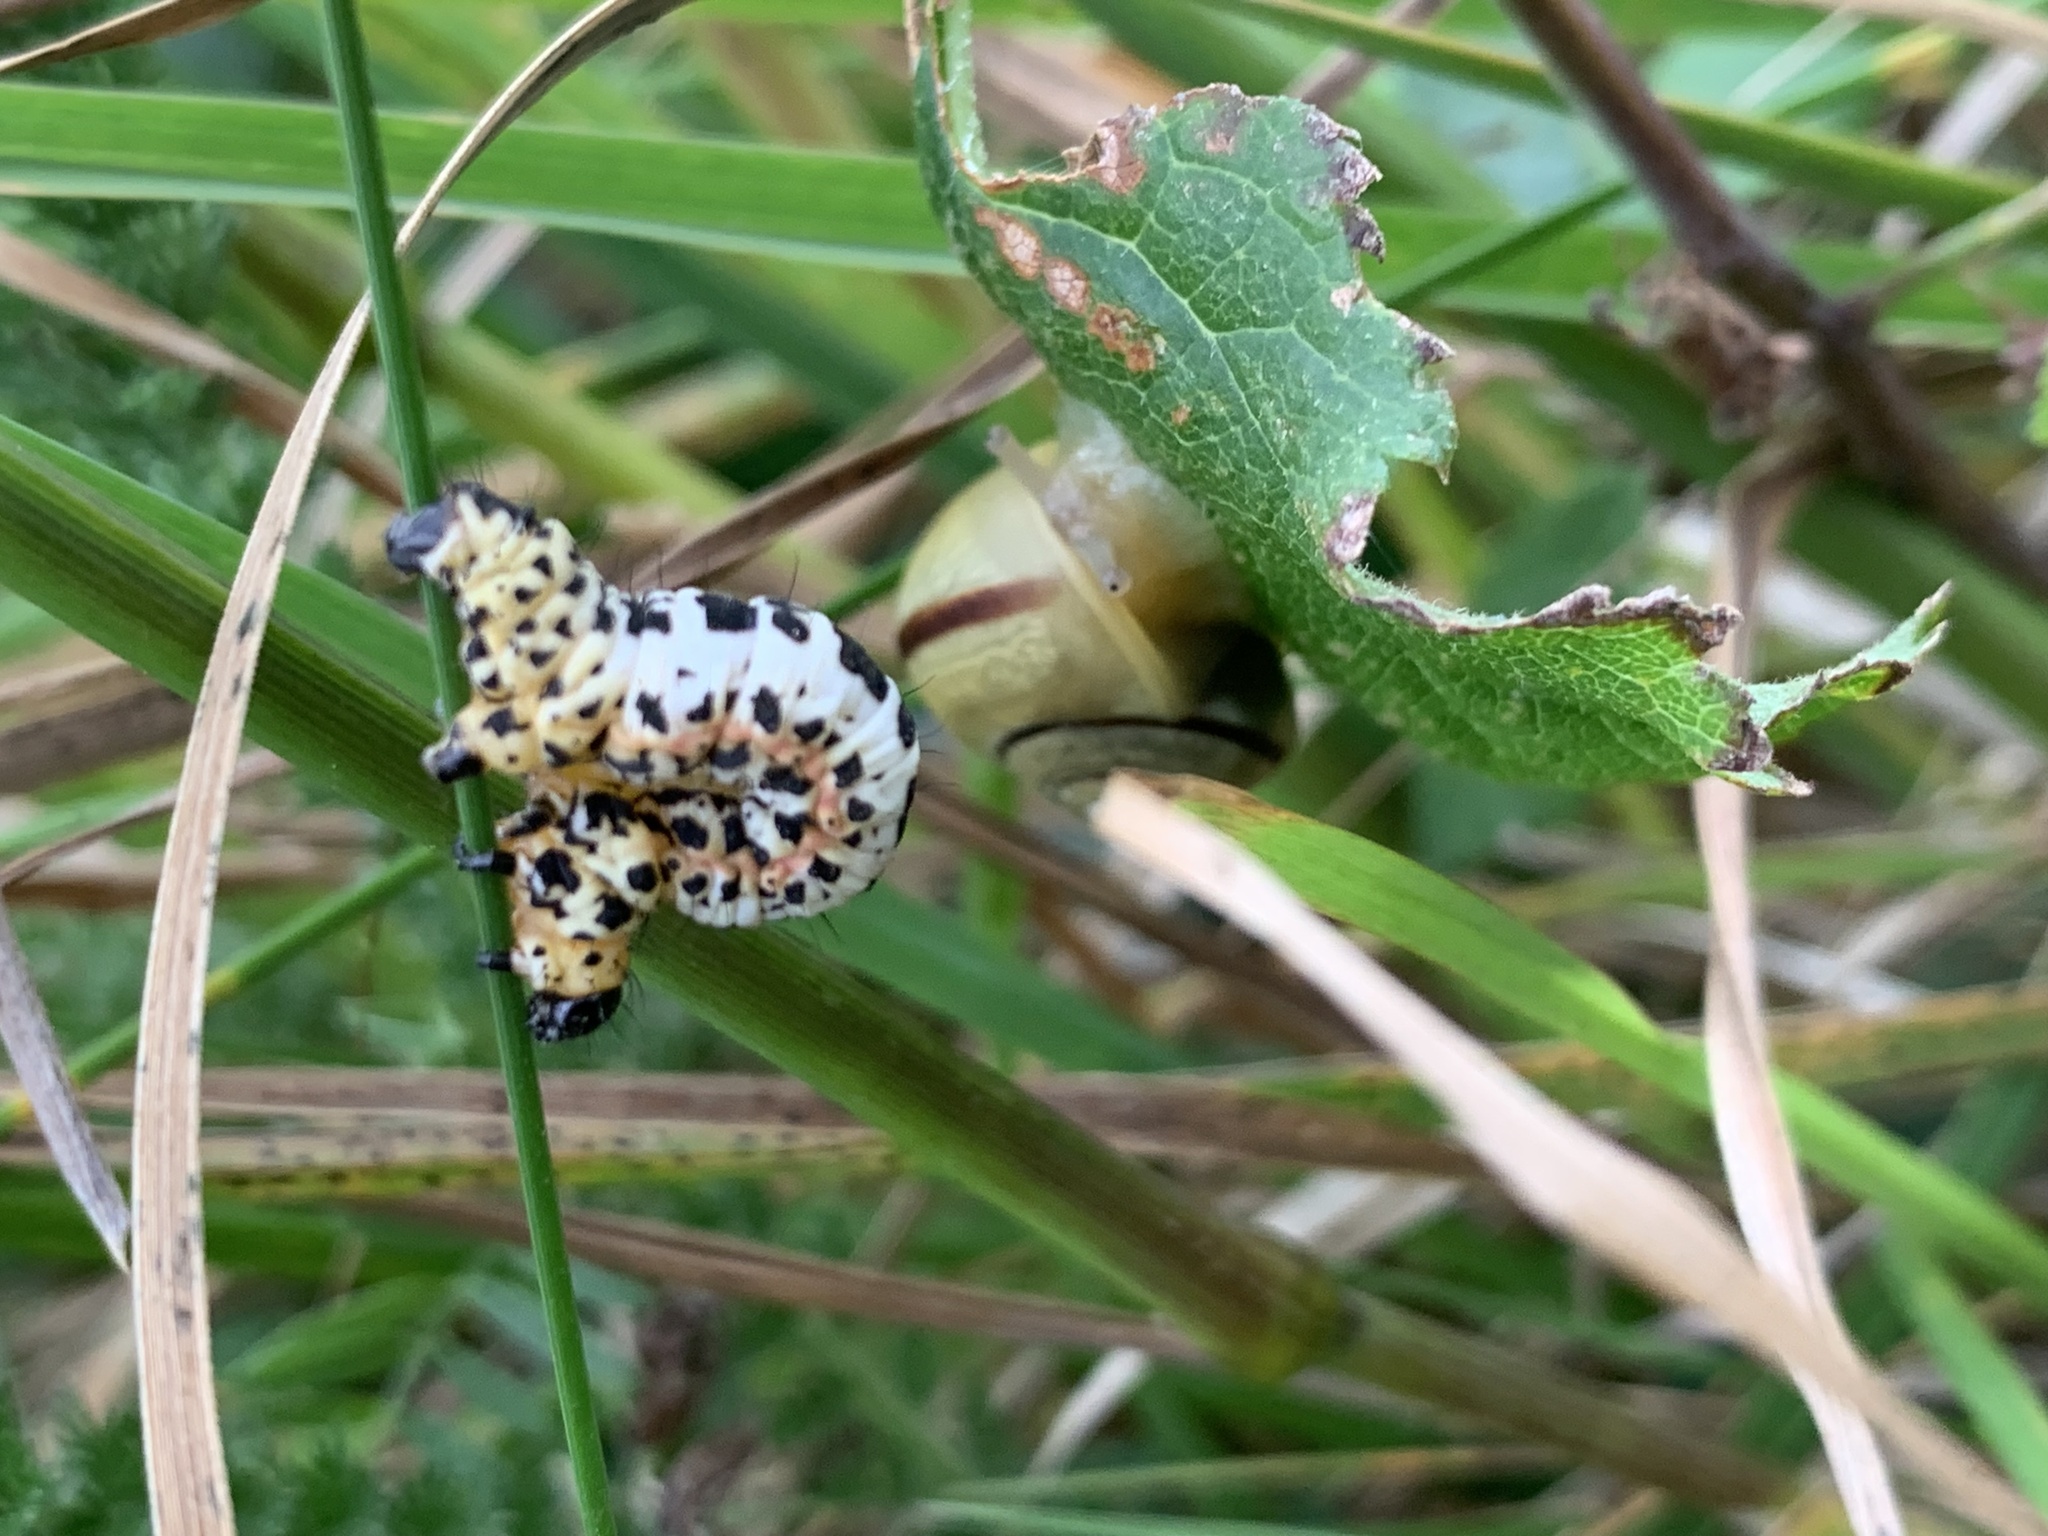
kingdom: Animalia
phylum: Arthropoda
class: Insecta
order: Lepidoptera
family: Geometridae
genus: Abraxas
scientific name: Abraxas grossulariata
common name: Magpie
